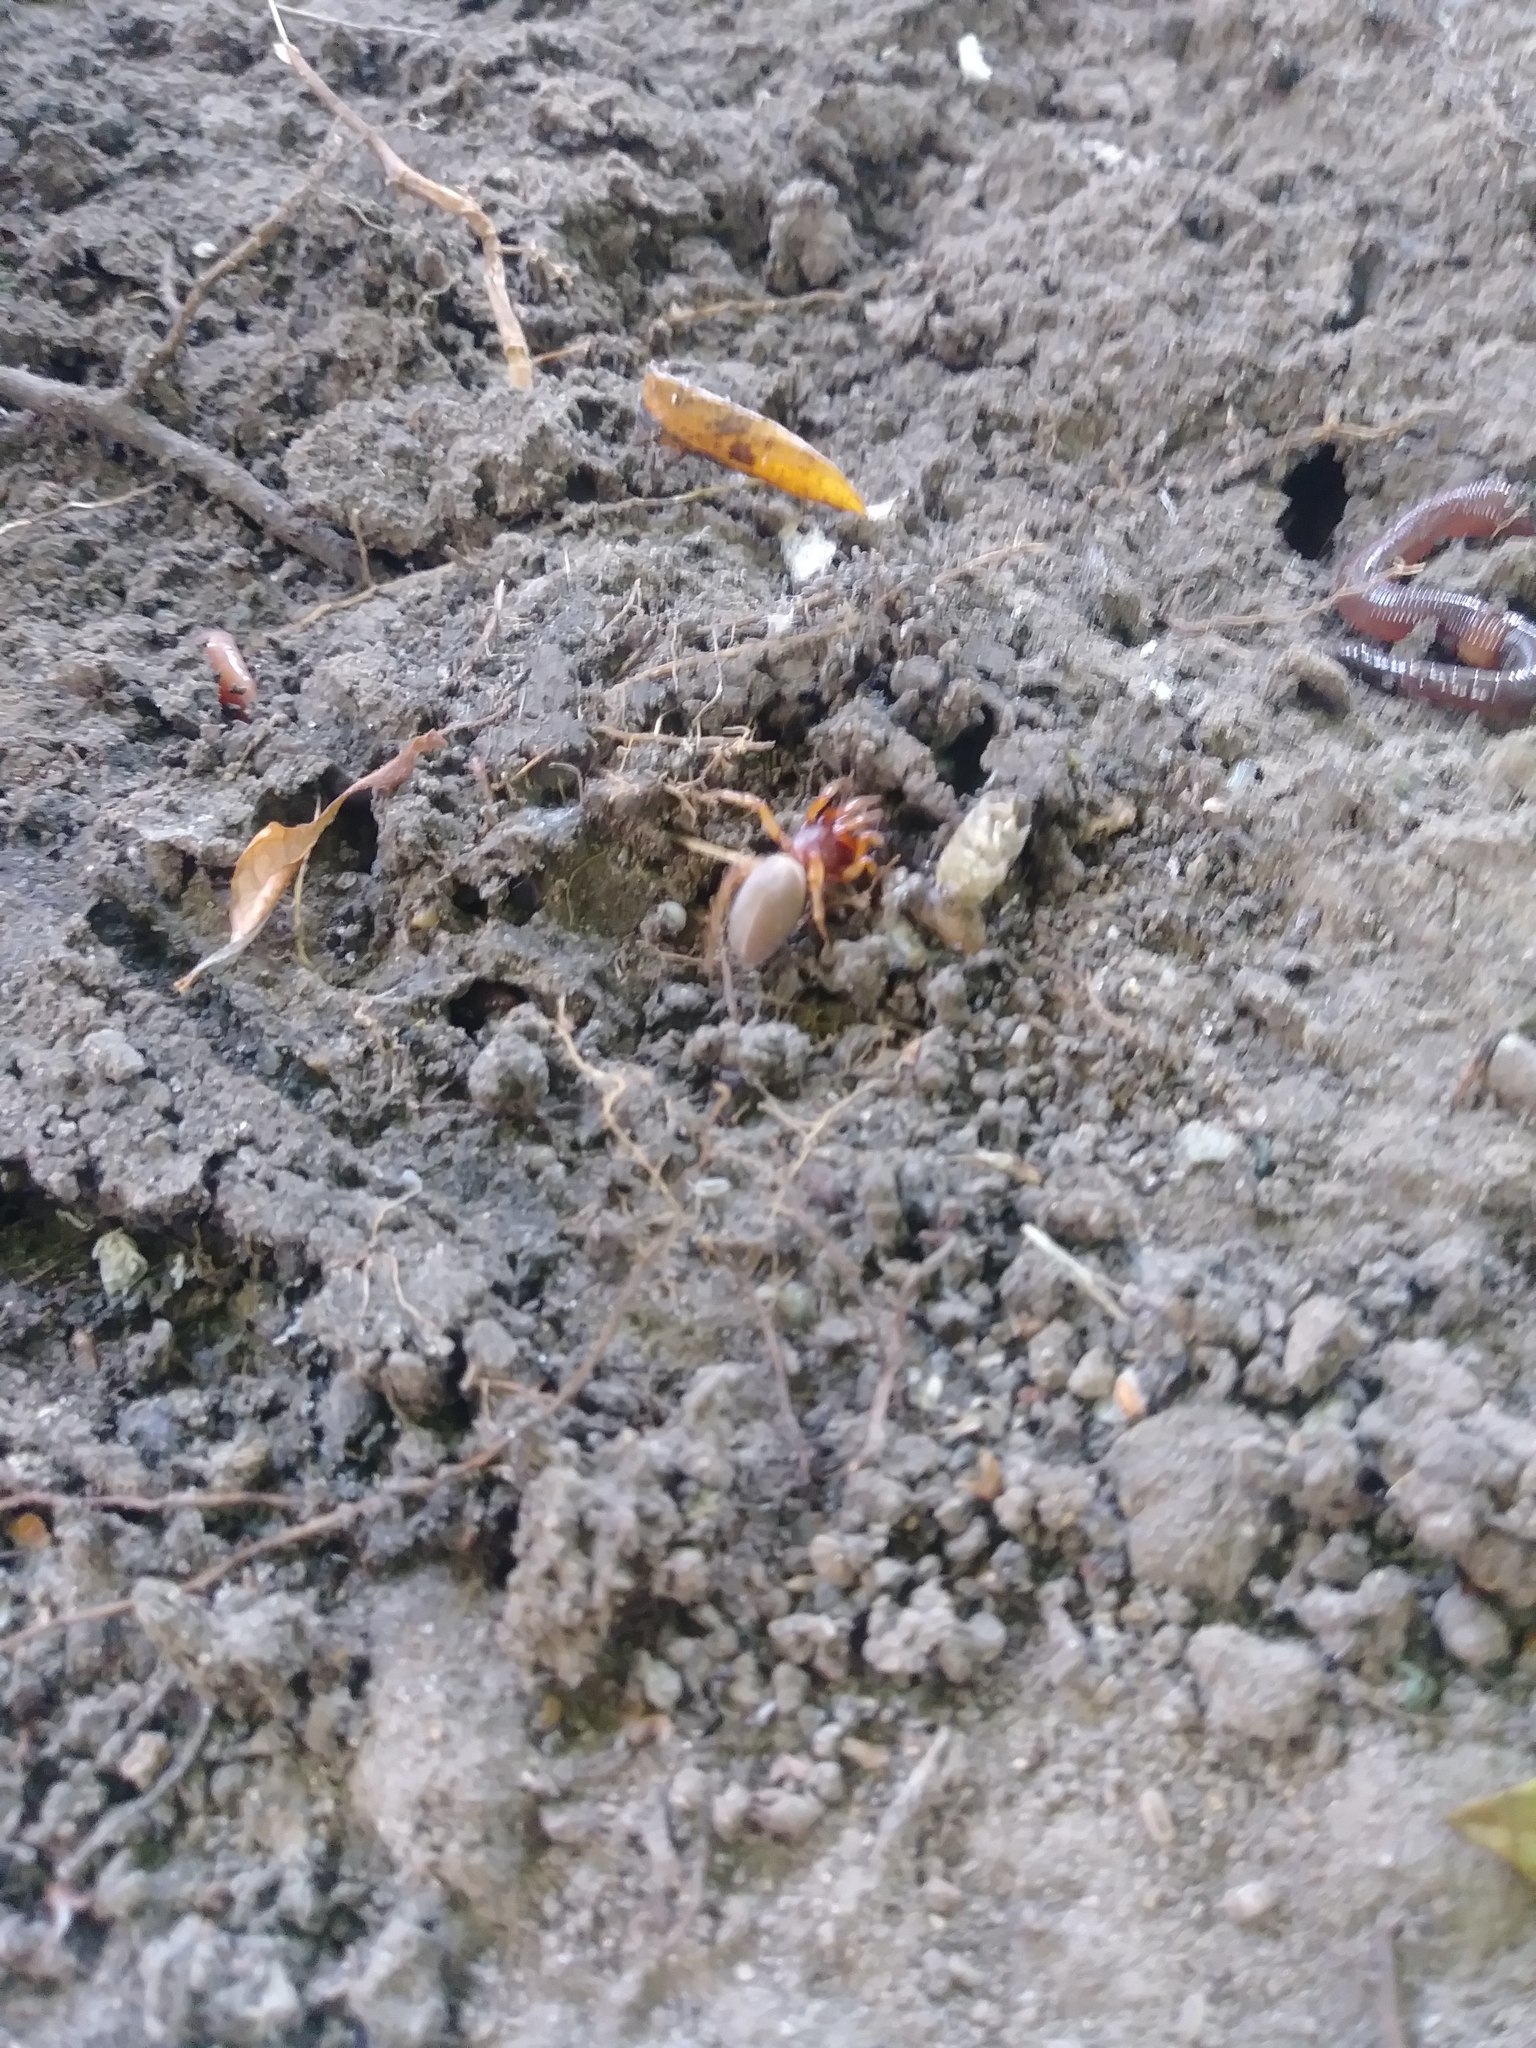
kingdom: Animalia
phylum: Arthropoda
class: Arachnida
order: Araneae
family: Dysderidae
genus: Dysdera
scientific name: Dysdera crocata
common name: Woodlouse spider
